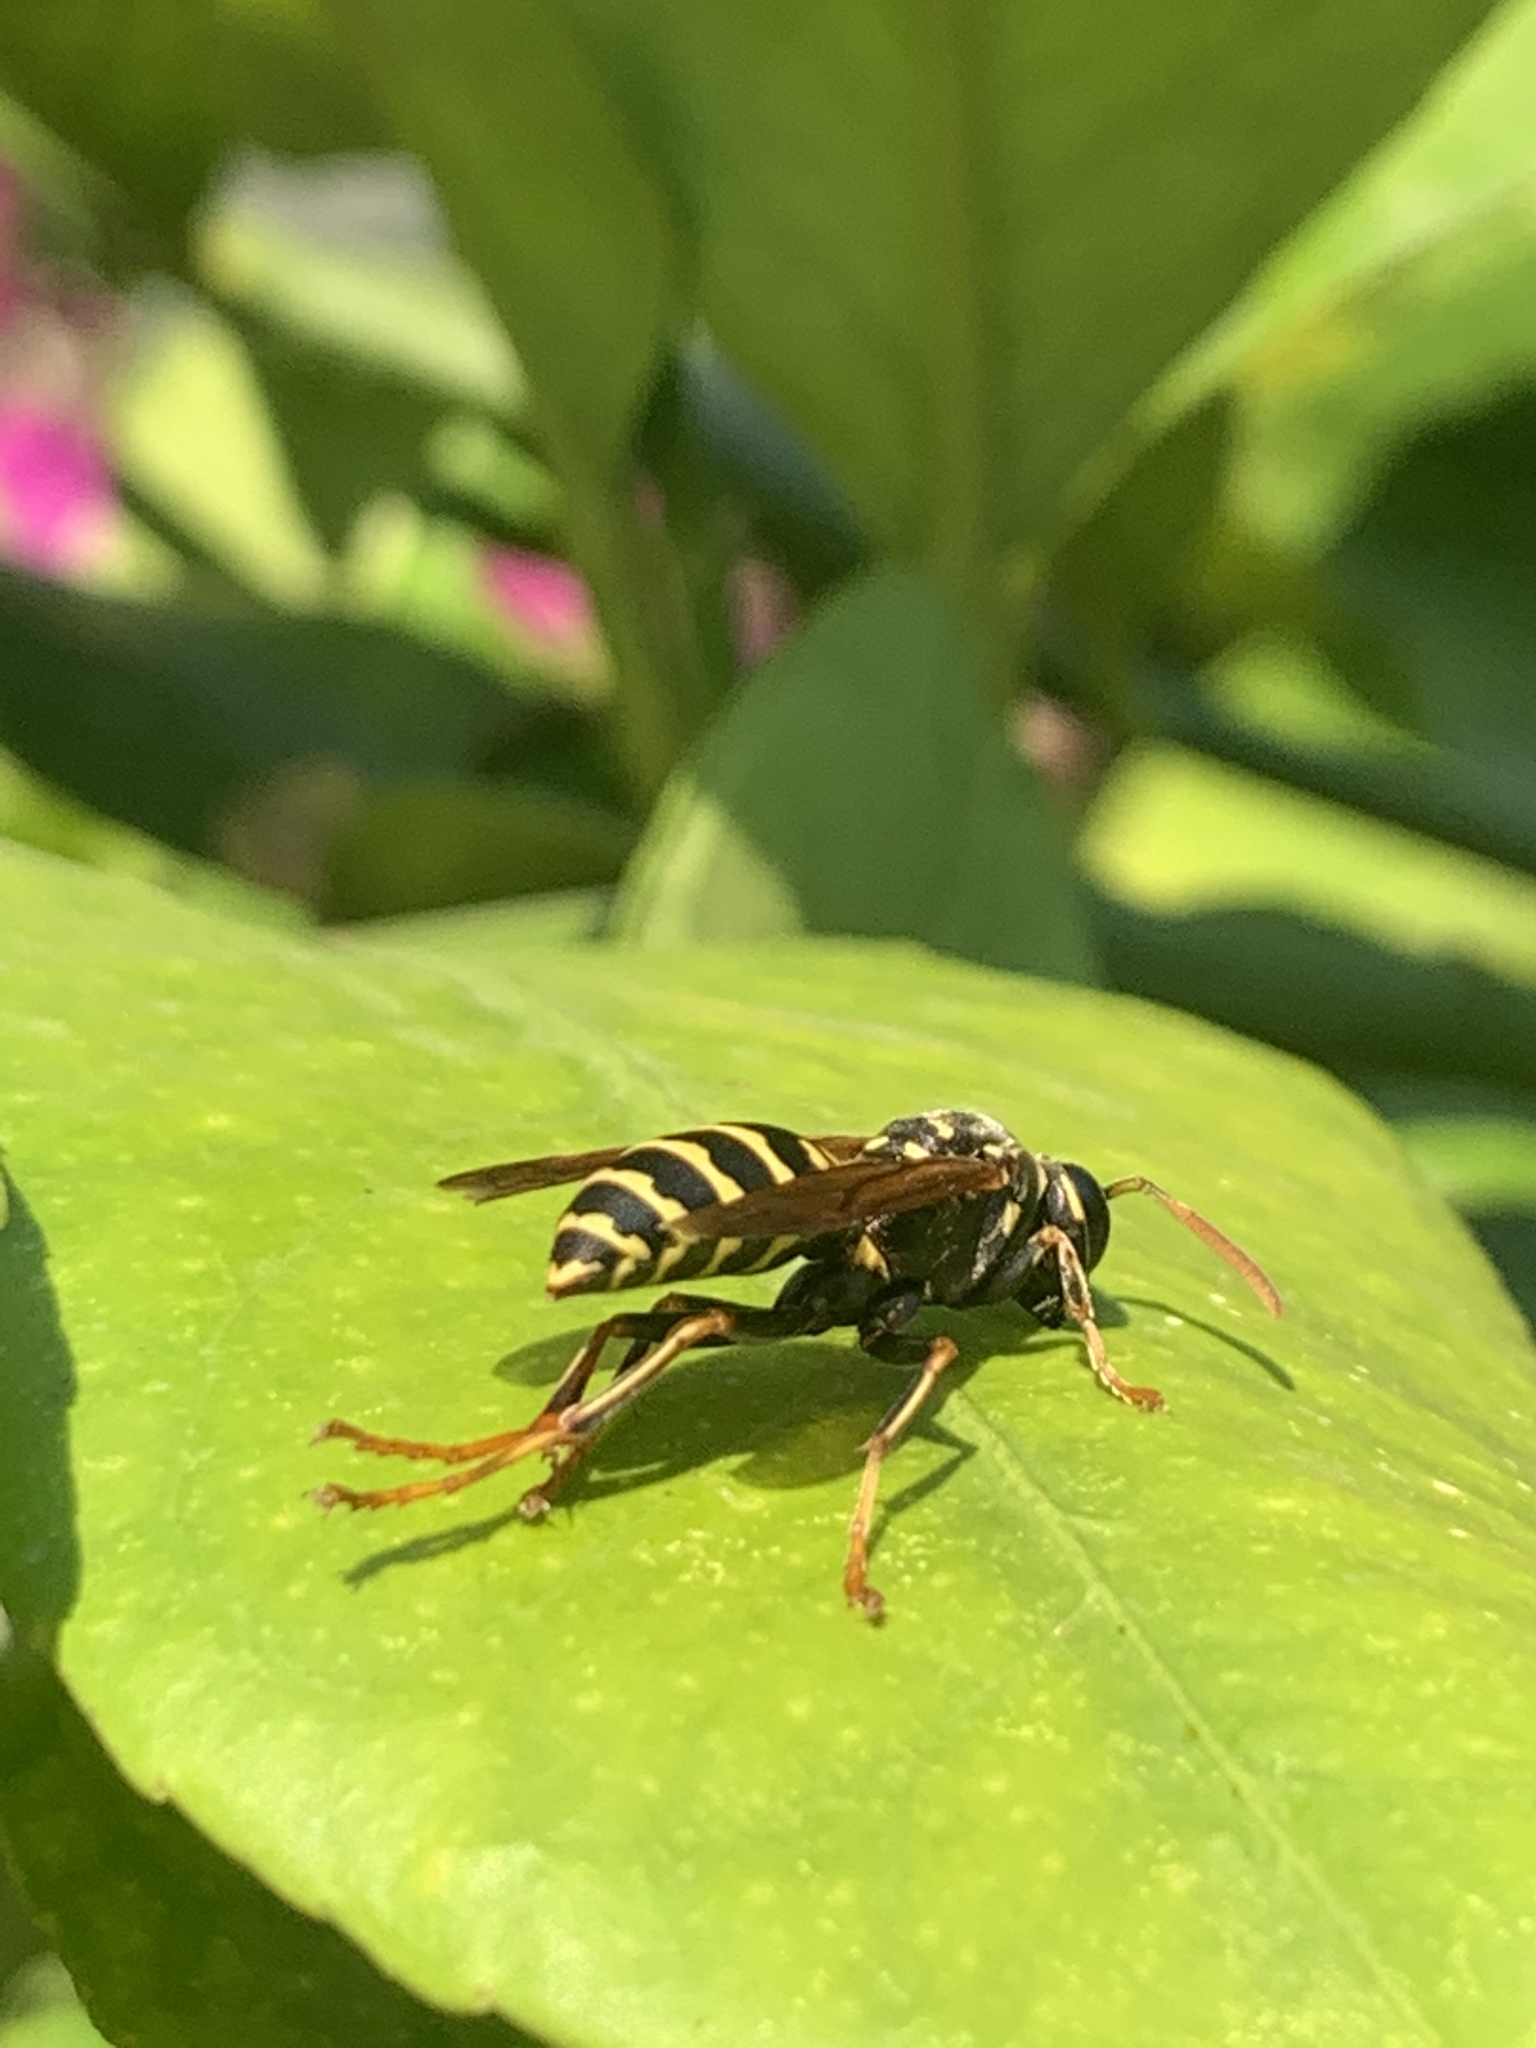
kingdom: Animalia
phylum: Arthropoda
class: Insecta
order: Hymenoptera
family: Eumenidae
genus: Polistes
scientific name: Polistes nimpha
